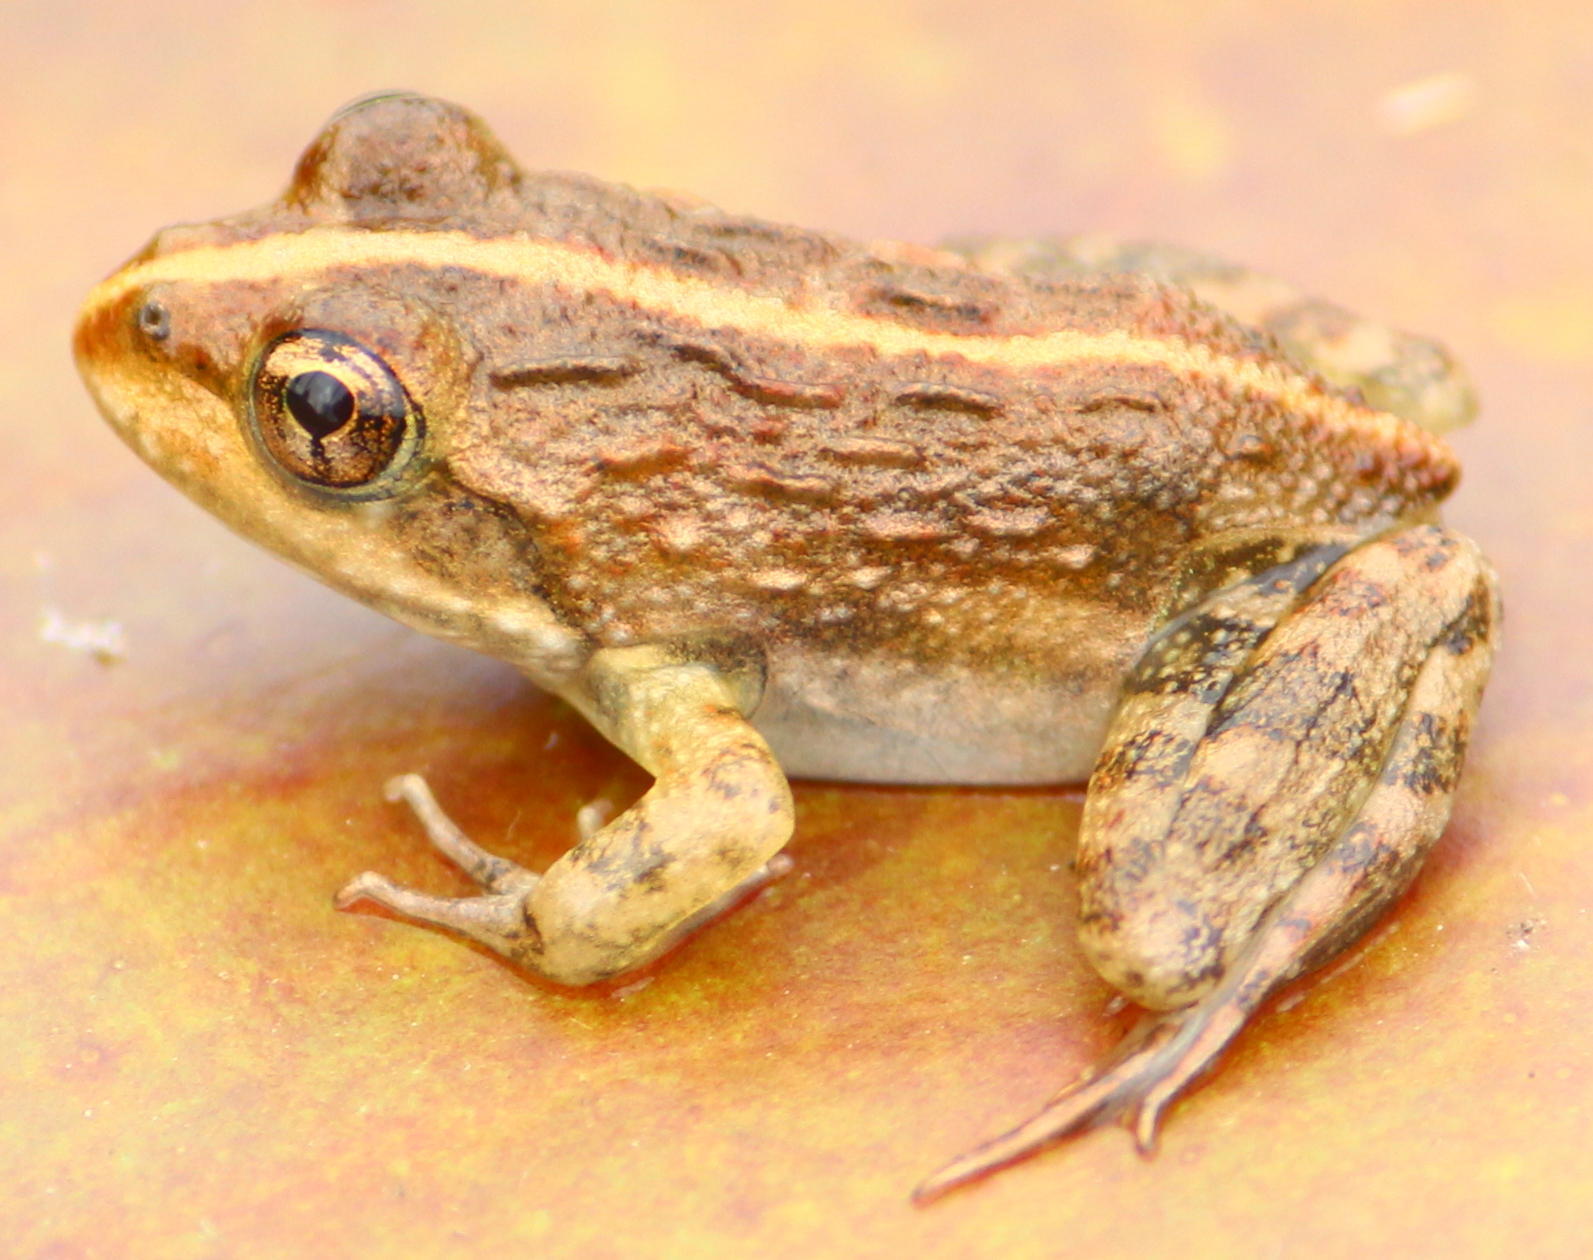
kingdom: Animalia
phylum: Chordata
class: Amphibia
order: Anura
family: Pyxicephalidae
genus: Amietia
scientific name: Amietia fuscigula
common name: Cape rana
